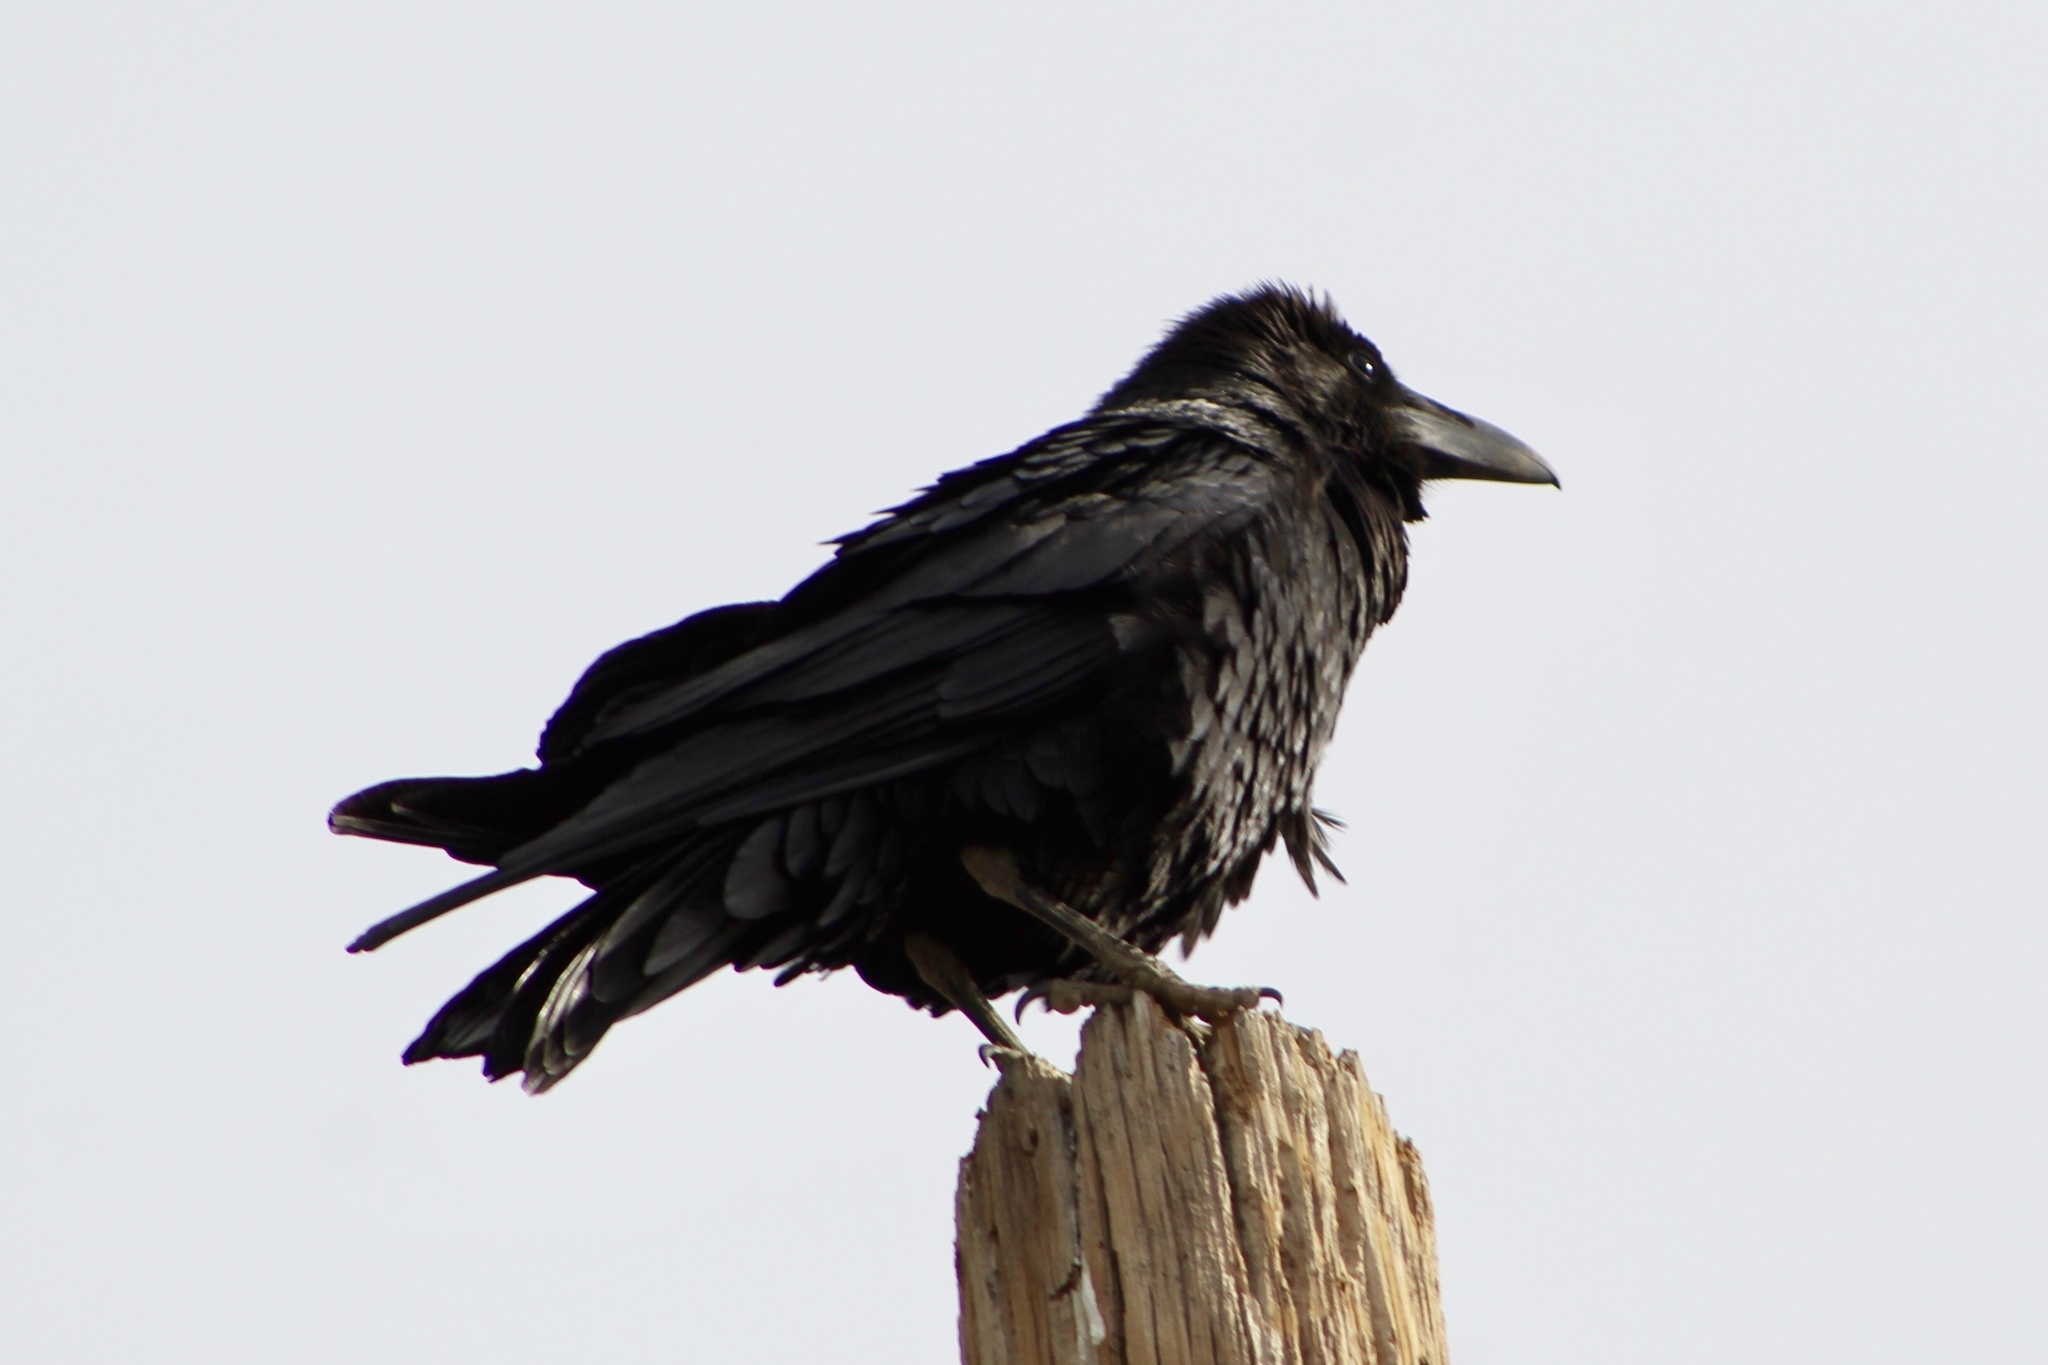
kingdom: Animalia
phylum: Chordata
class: Aves
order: Passeriformes
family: Corvidae
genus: Corvus
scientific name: Corvus corax
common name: Common raven
